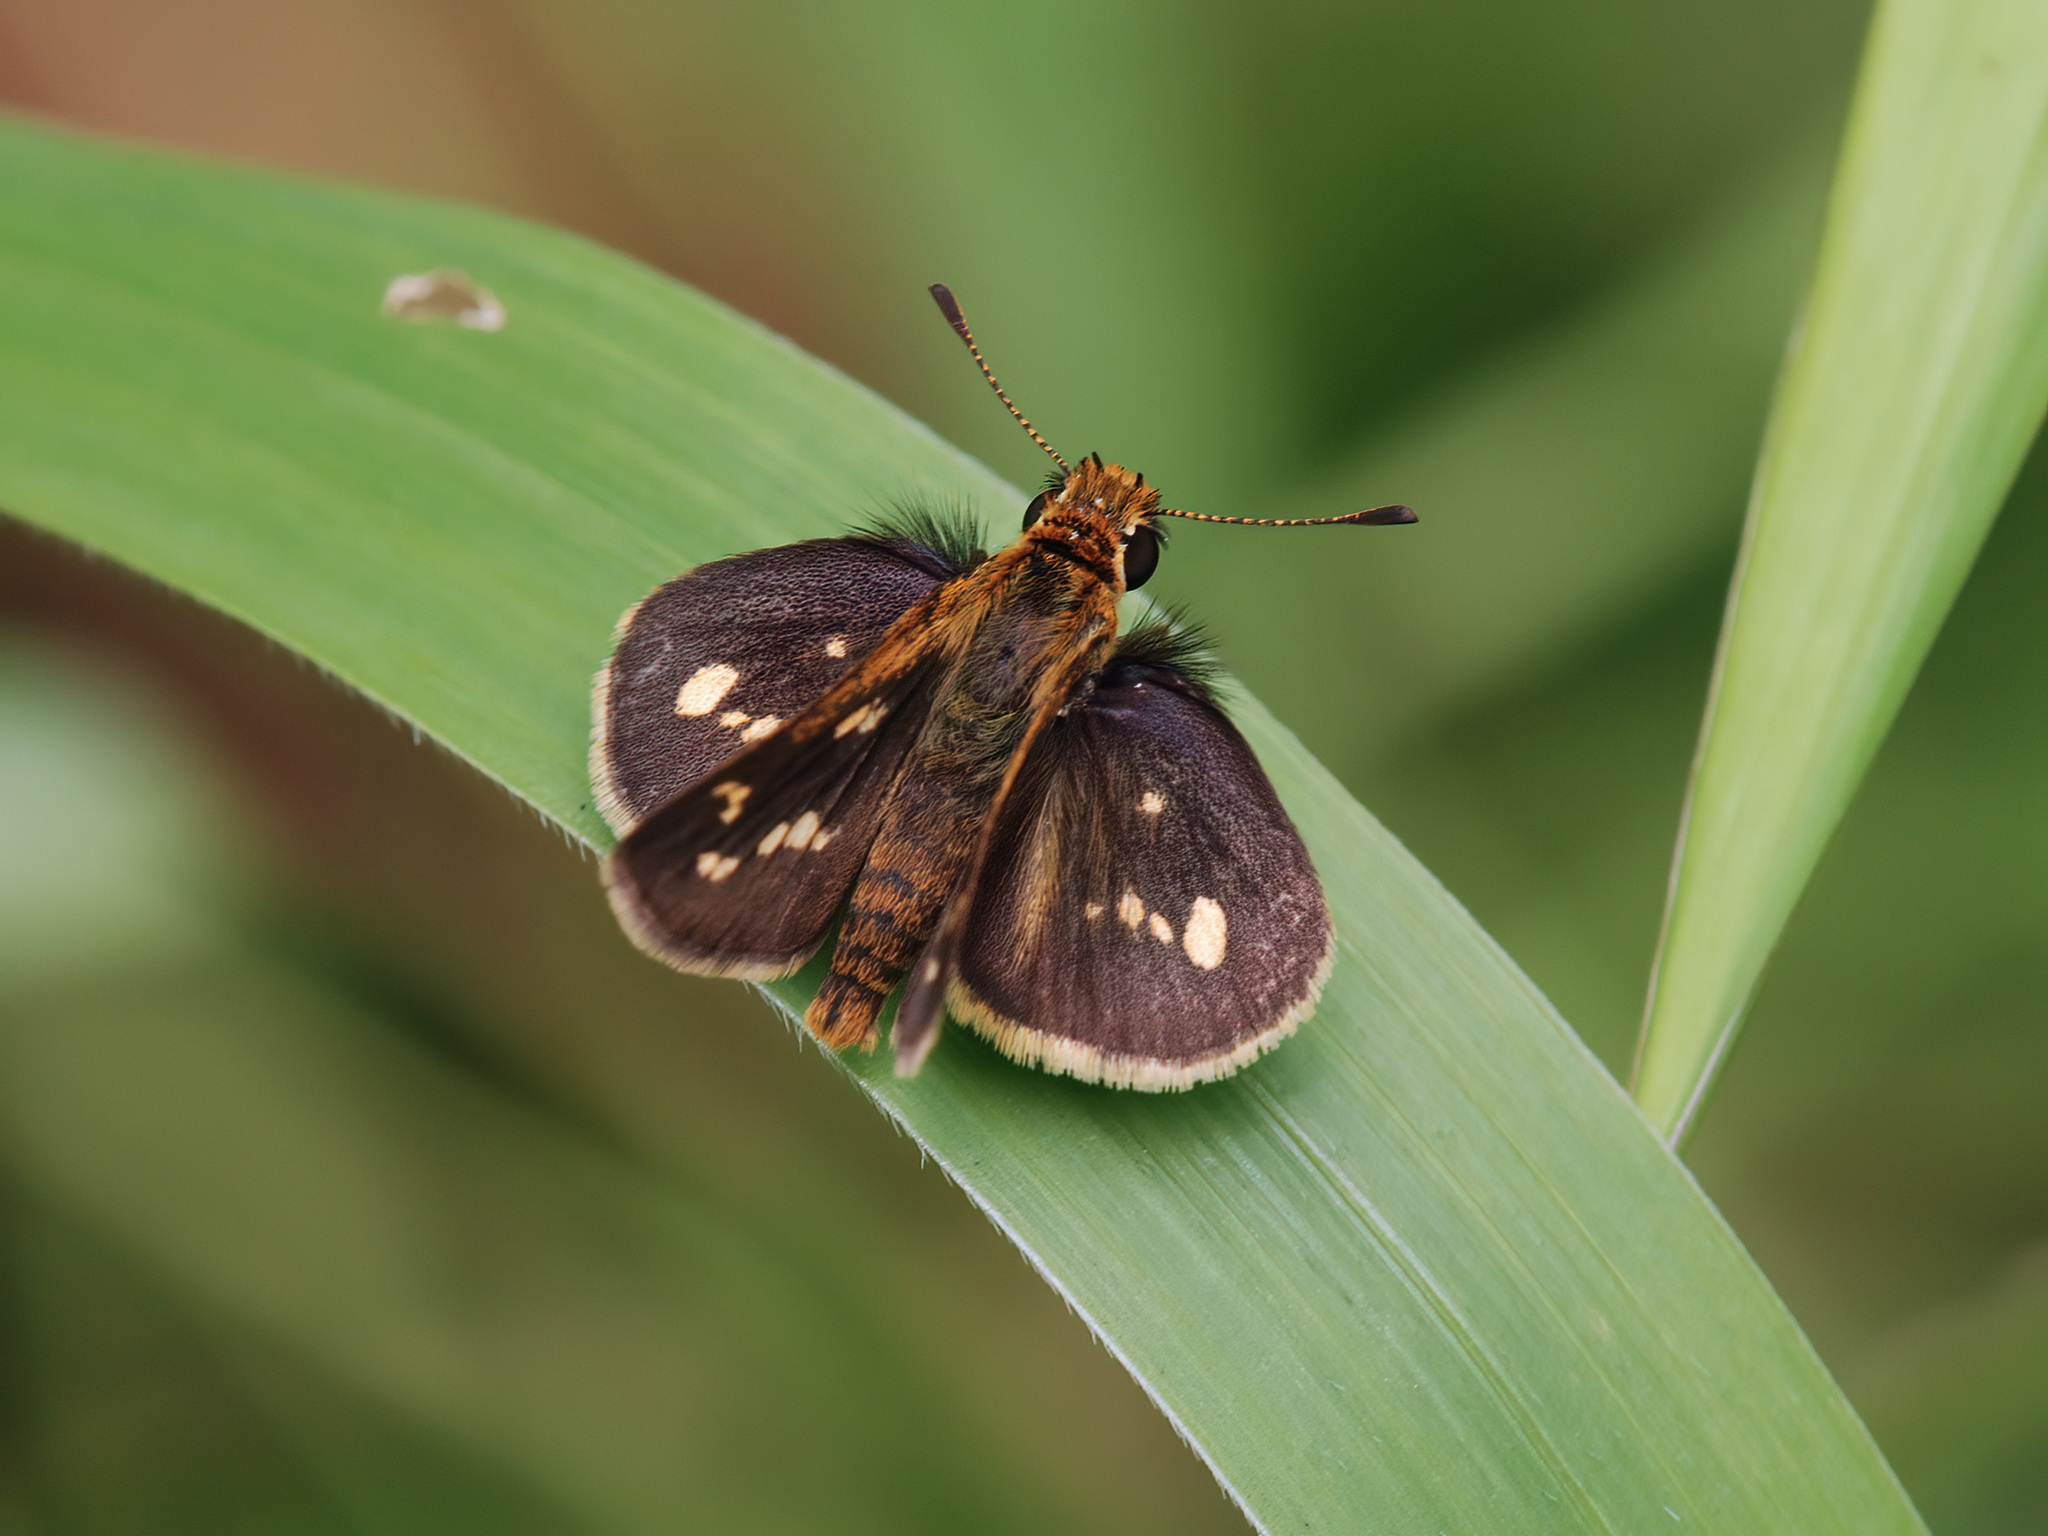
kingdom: Animalia
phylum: Arthropoda
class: Insecta
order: Lepidoptera
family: Hesperiidae
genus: Taractrocera
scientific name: Taractrocera ardonia
